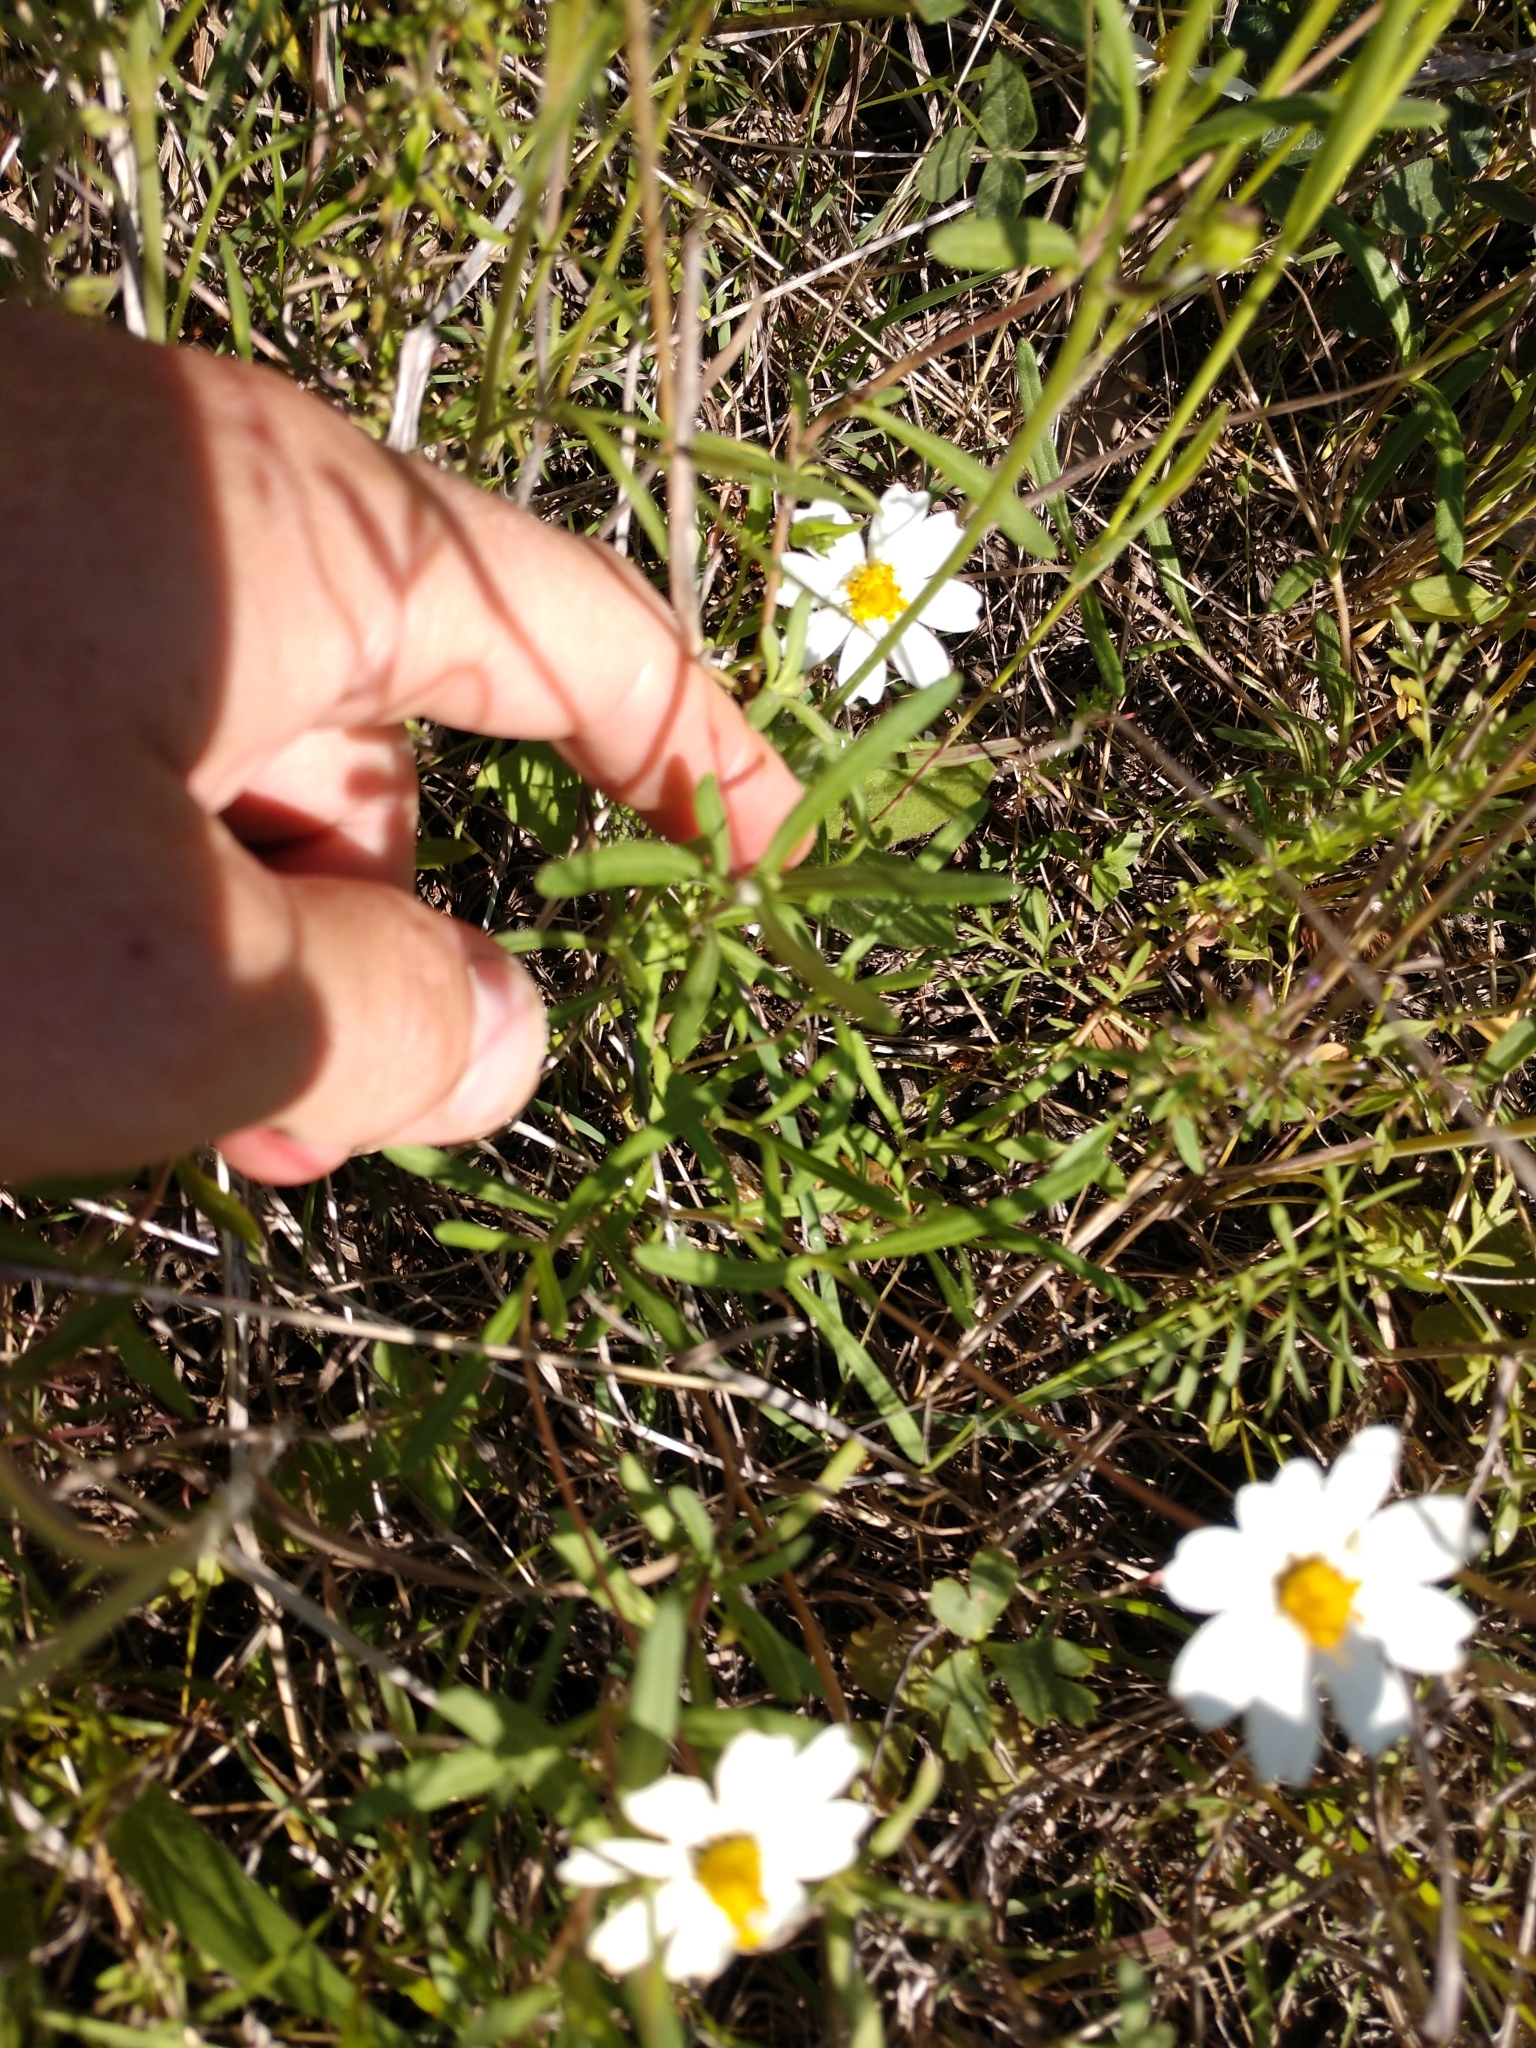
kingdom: Plantae
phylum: Tracheophyta
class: Magnoliopsida
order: Asterales
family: Asteraceae
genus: Melampodium
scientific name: Melampodium leucanthum
